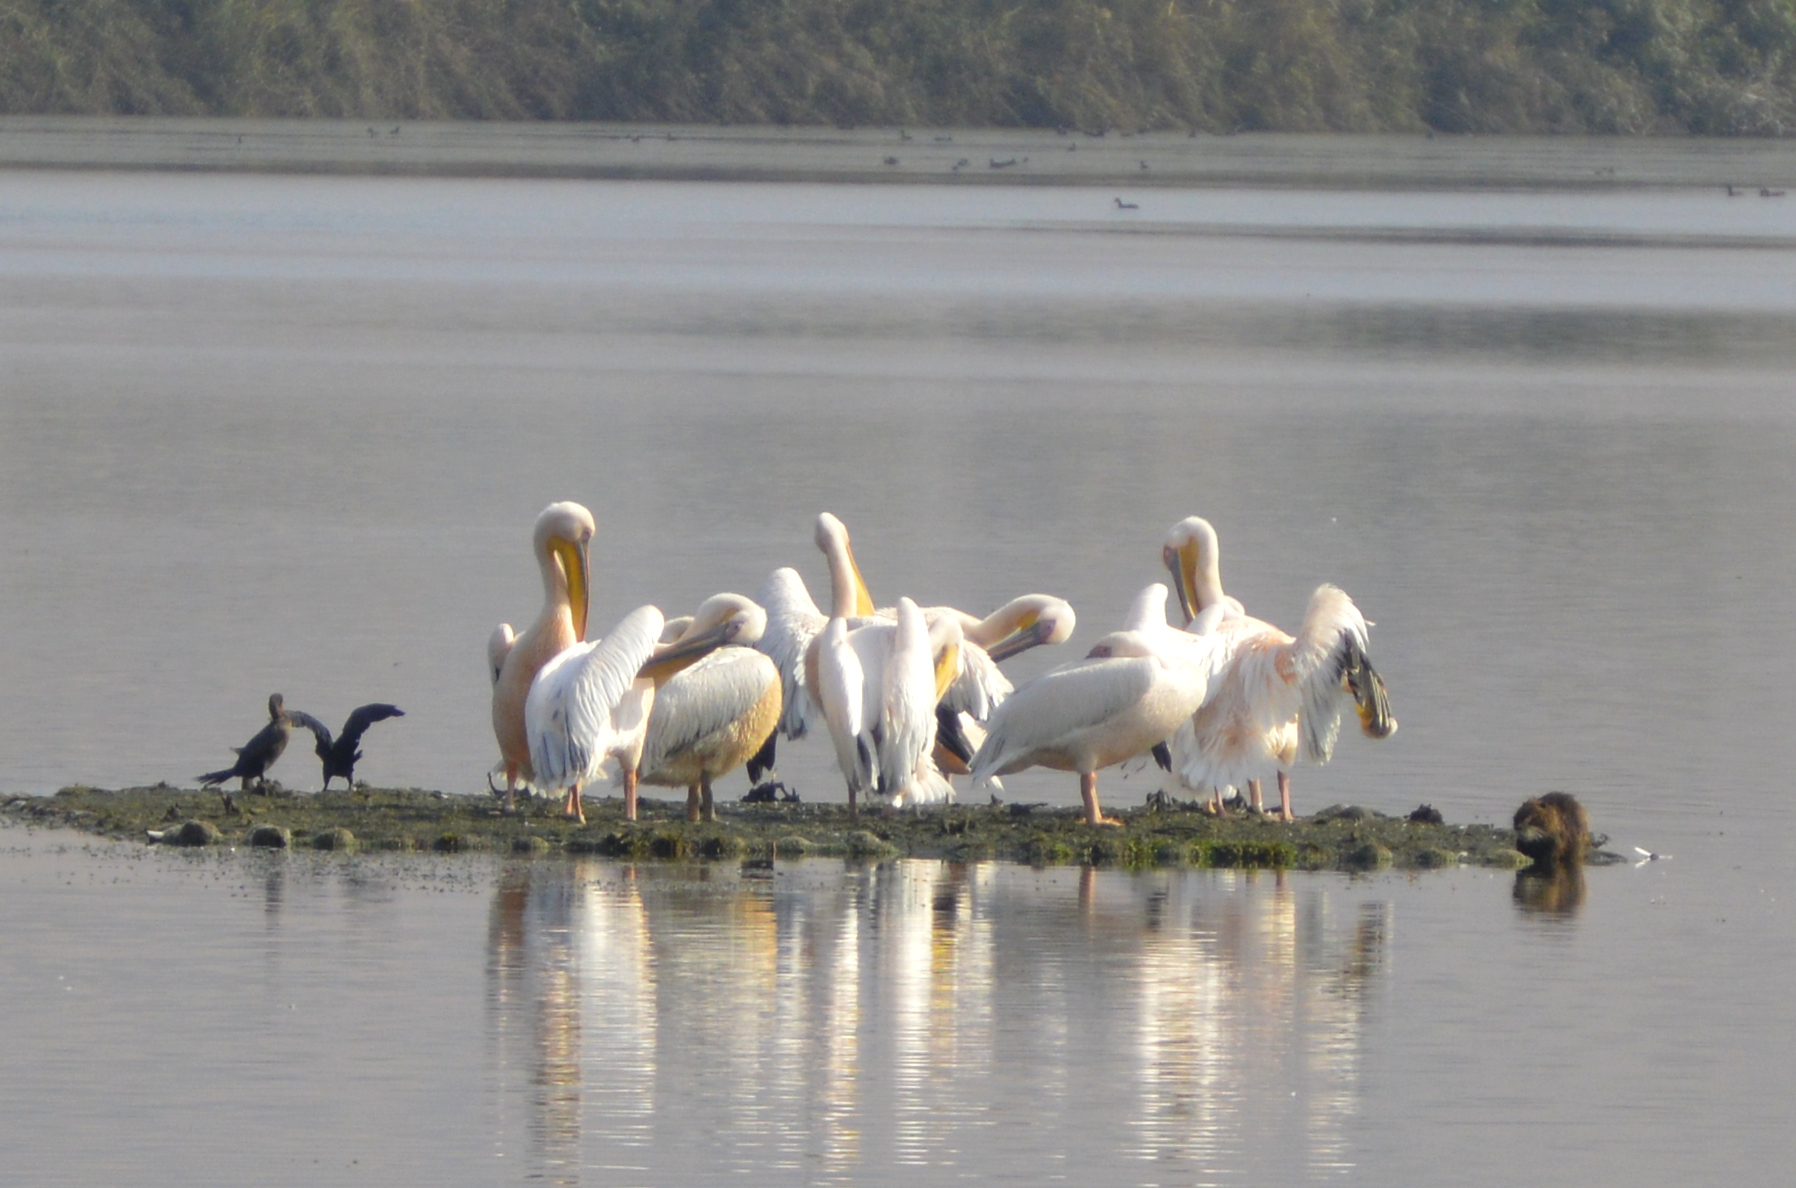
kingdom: Animalia
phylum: Chordata
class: Aves
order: Pelecaniformes
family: Pelecanidae
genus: Pelecanus
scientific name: Pelecanus onocrotalus
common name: Great white pelican
